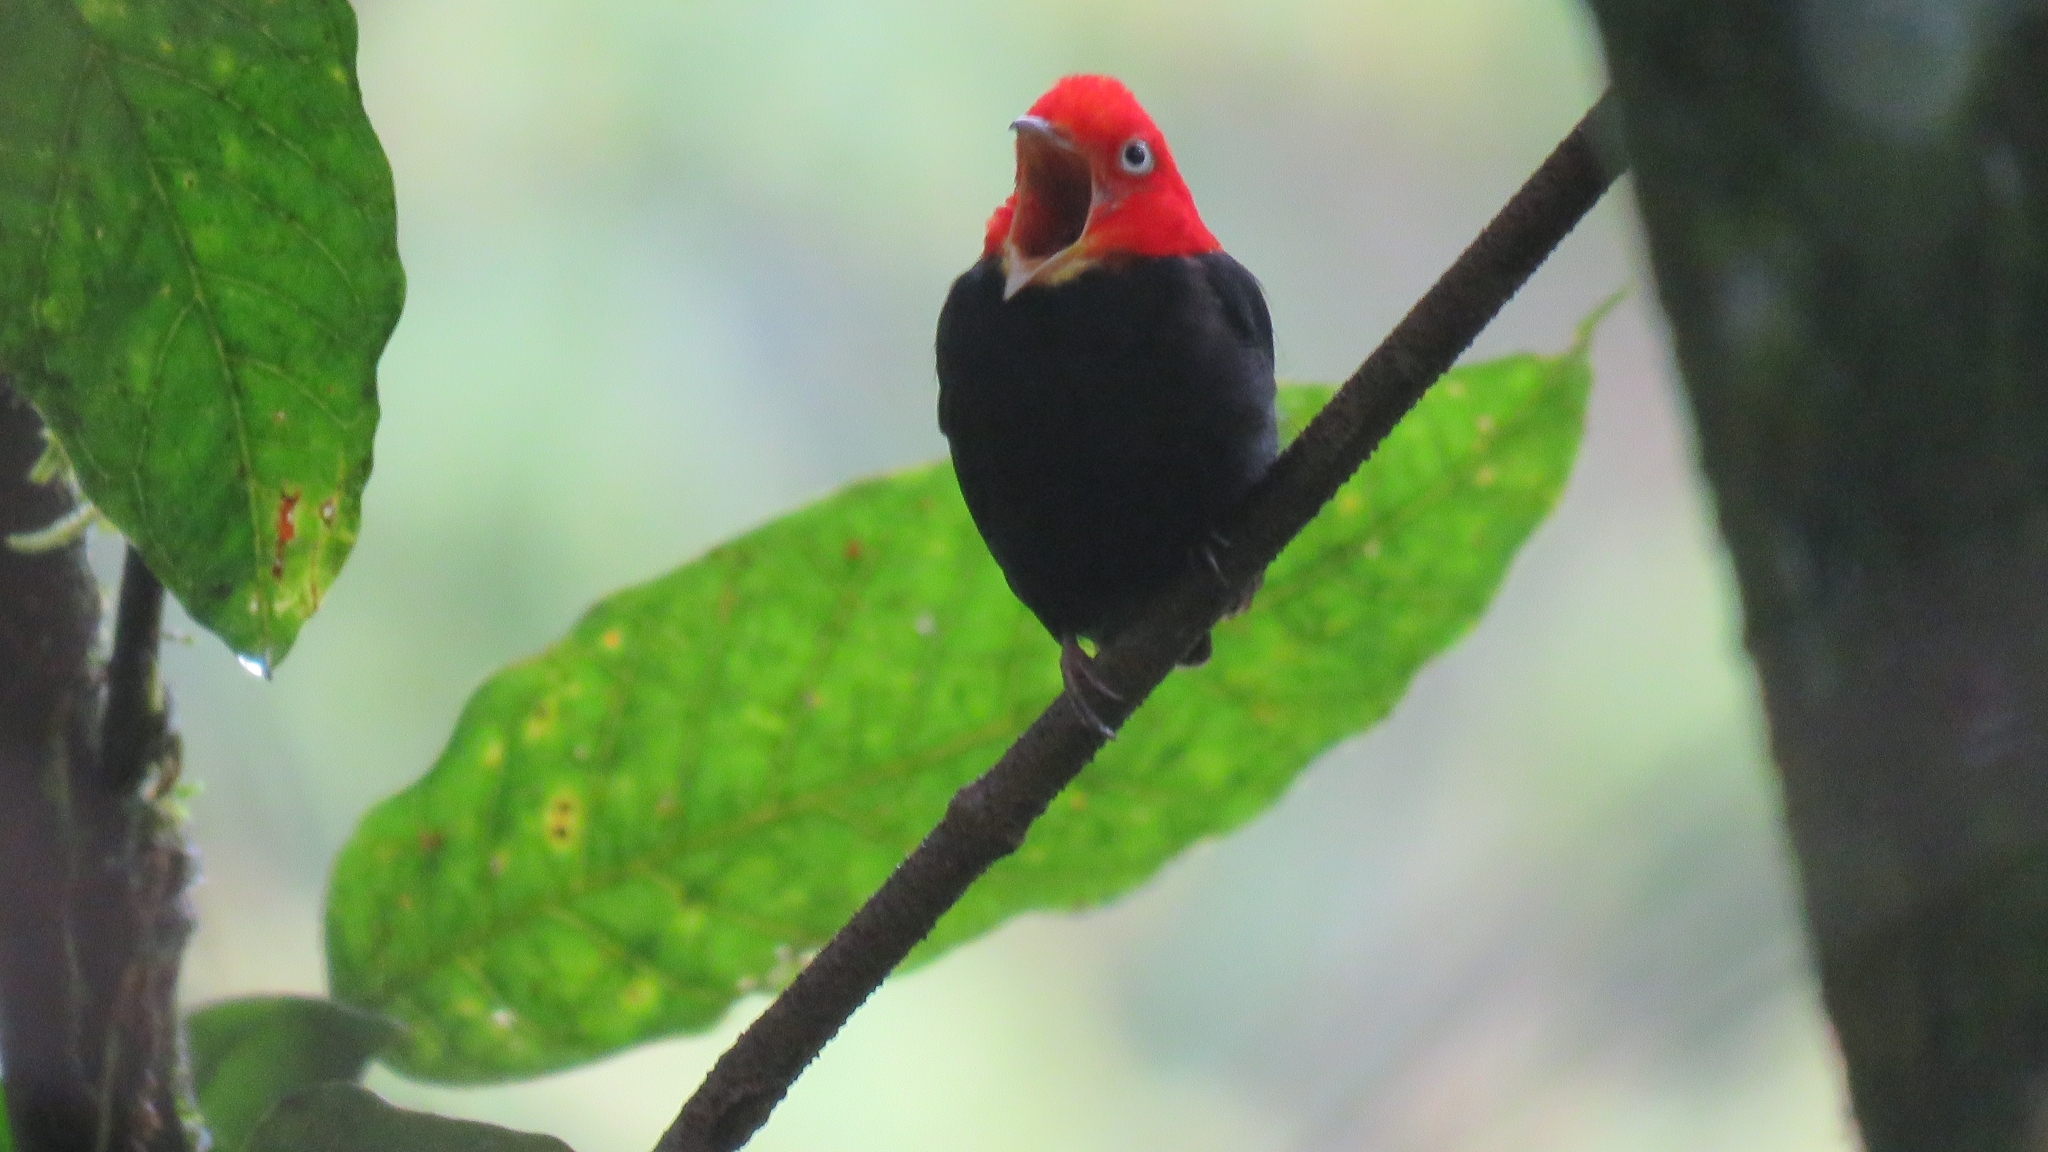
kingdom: Animalia
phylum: Chordata
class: Aves
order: Passeriformes
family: Pipridae
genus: Pipra
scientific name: Pipra mentalis
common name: Red-capped manakin
